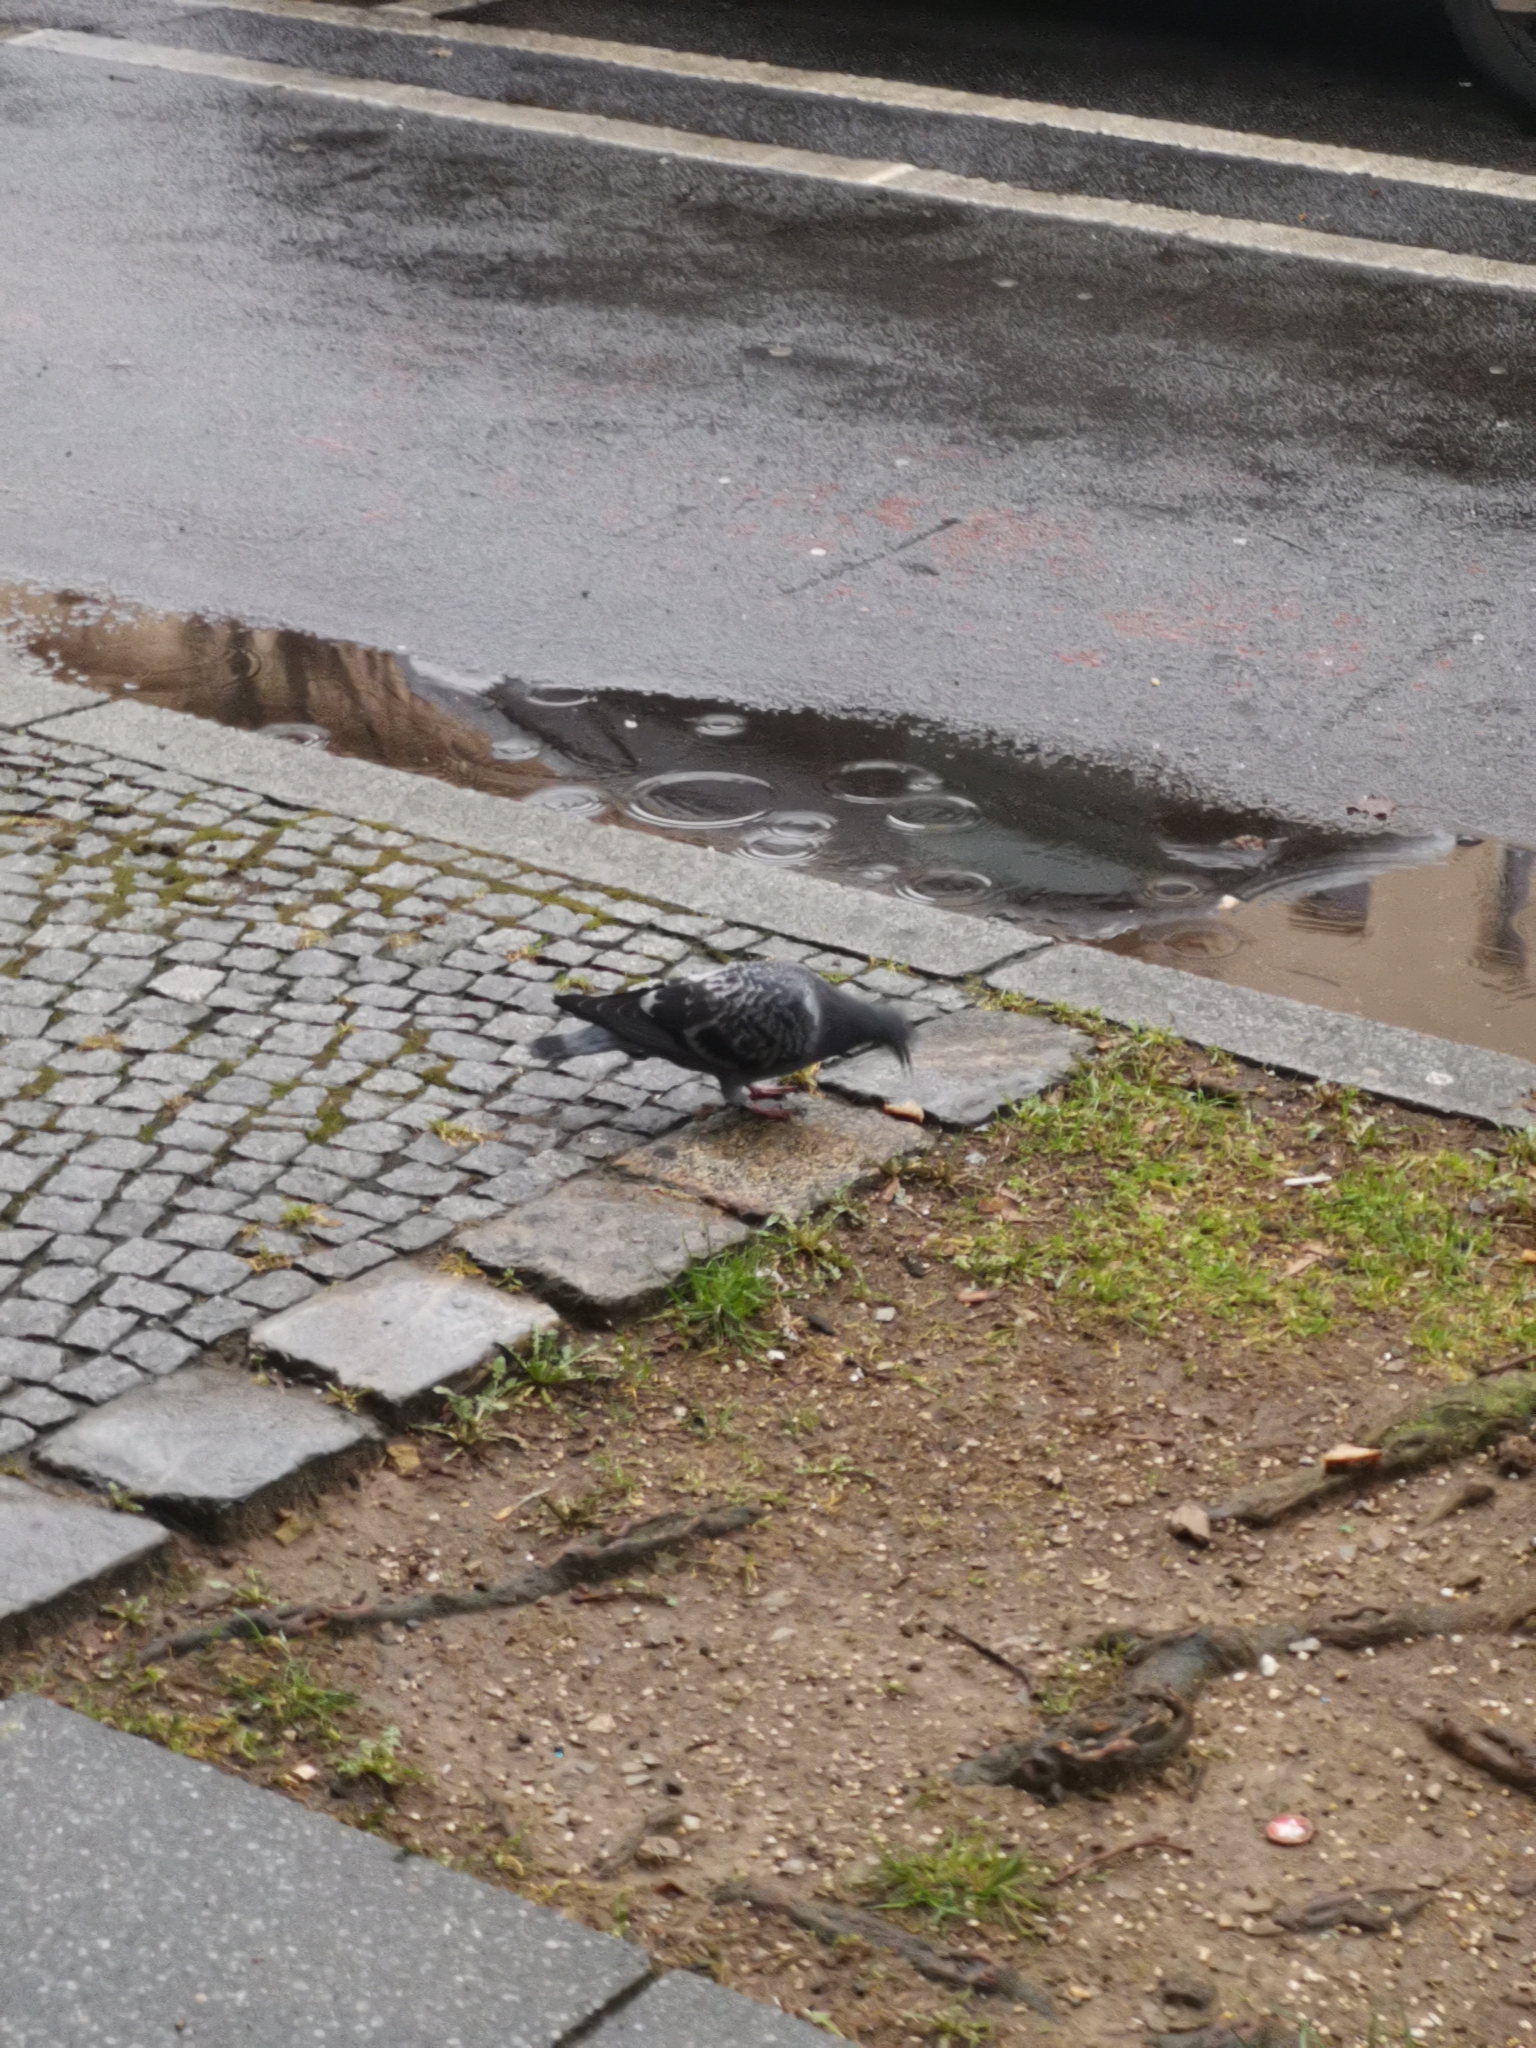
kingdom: Animalia
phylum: Chordata
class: Aves
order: Columbiformes
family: Columbidae
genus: Columba
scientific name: Columba livia
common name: Rock pigeon
